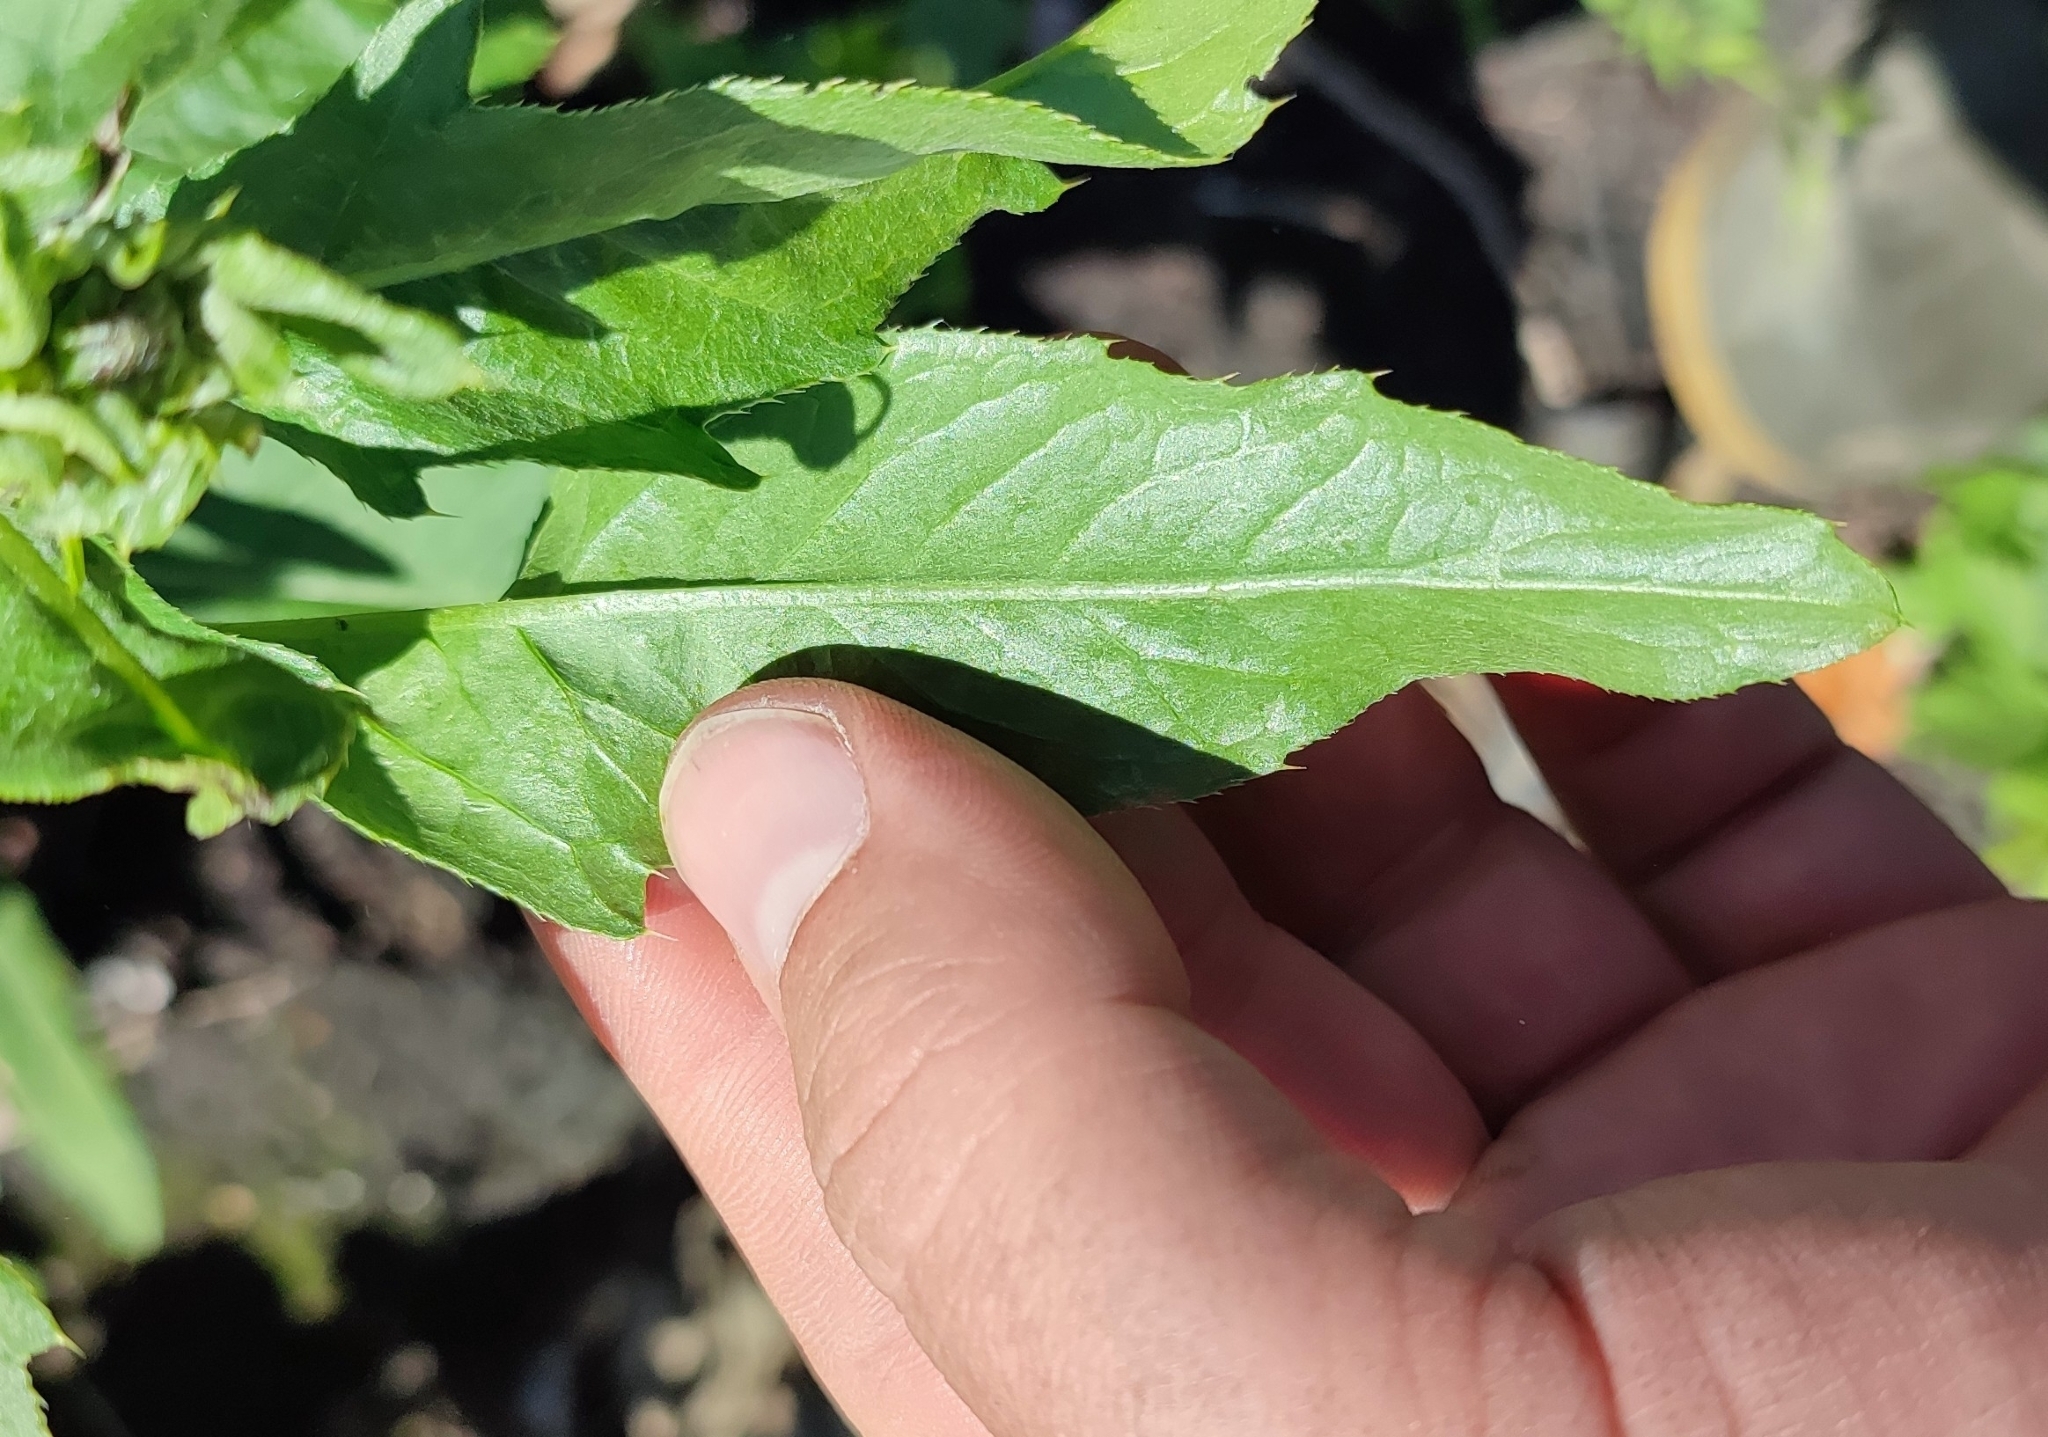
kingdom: Plantae
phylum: Tracheophyta
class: Magnoliopsida
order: Asterales
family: Asteraceae
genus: Cirsium
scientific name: Cirsium arvense
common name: Creeping thistle
